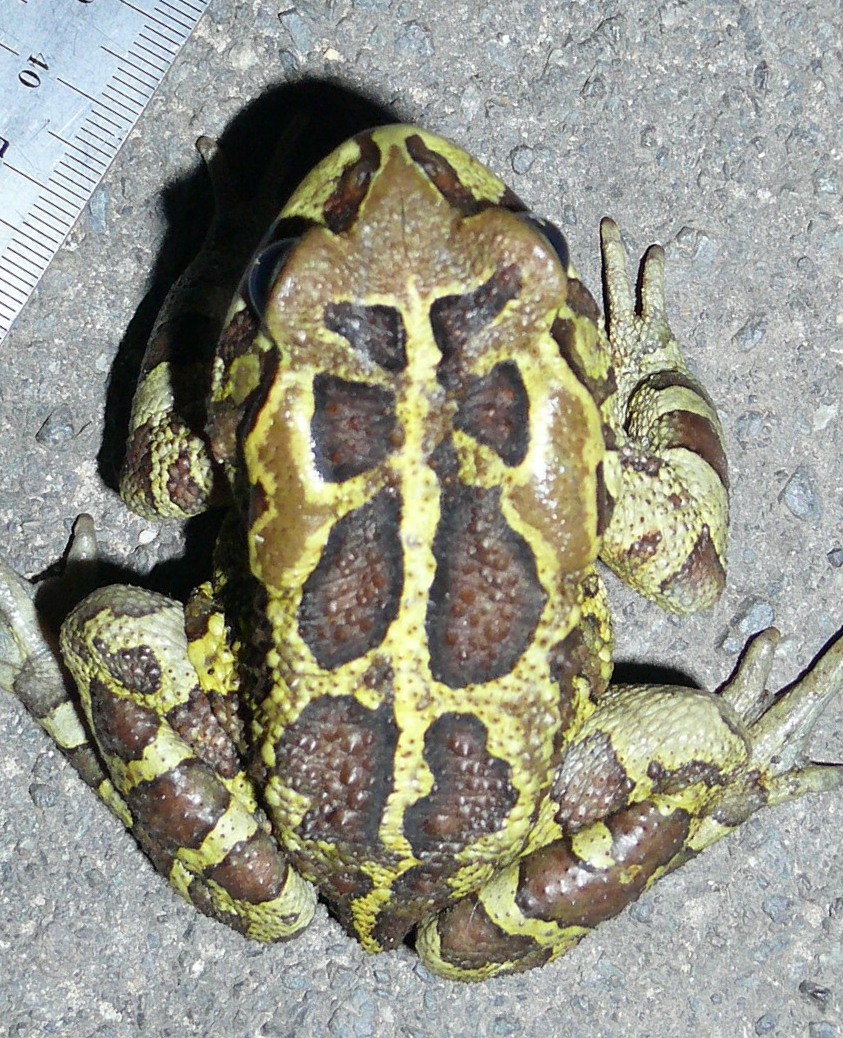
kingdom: Animalia
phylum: Chordata
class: Amphibia
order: Anura
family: Bufonidae
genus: Sclerophrys
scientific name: Sclerophrys pantherina
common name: Panther toad
